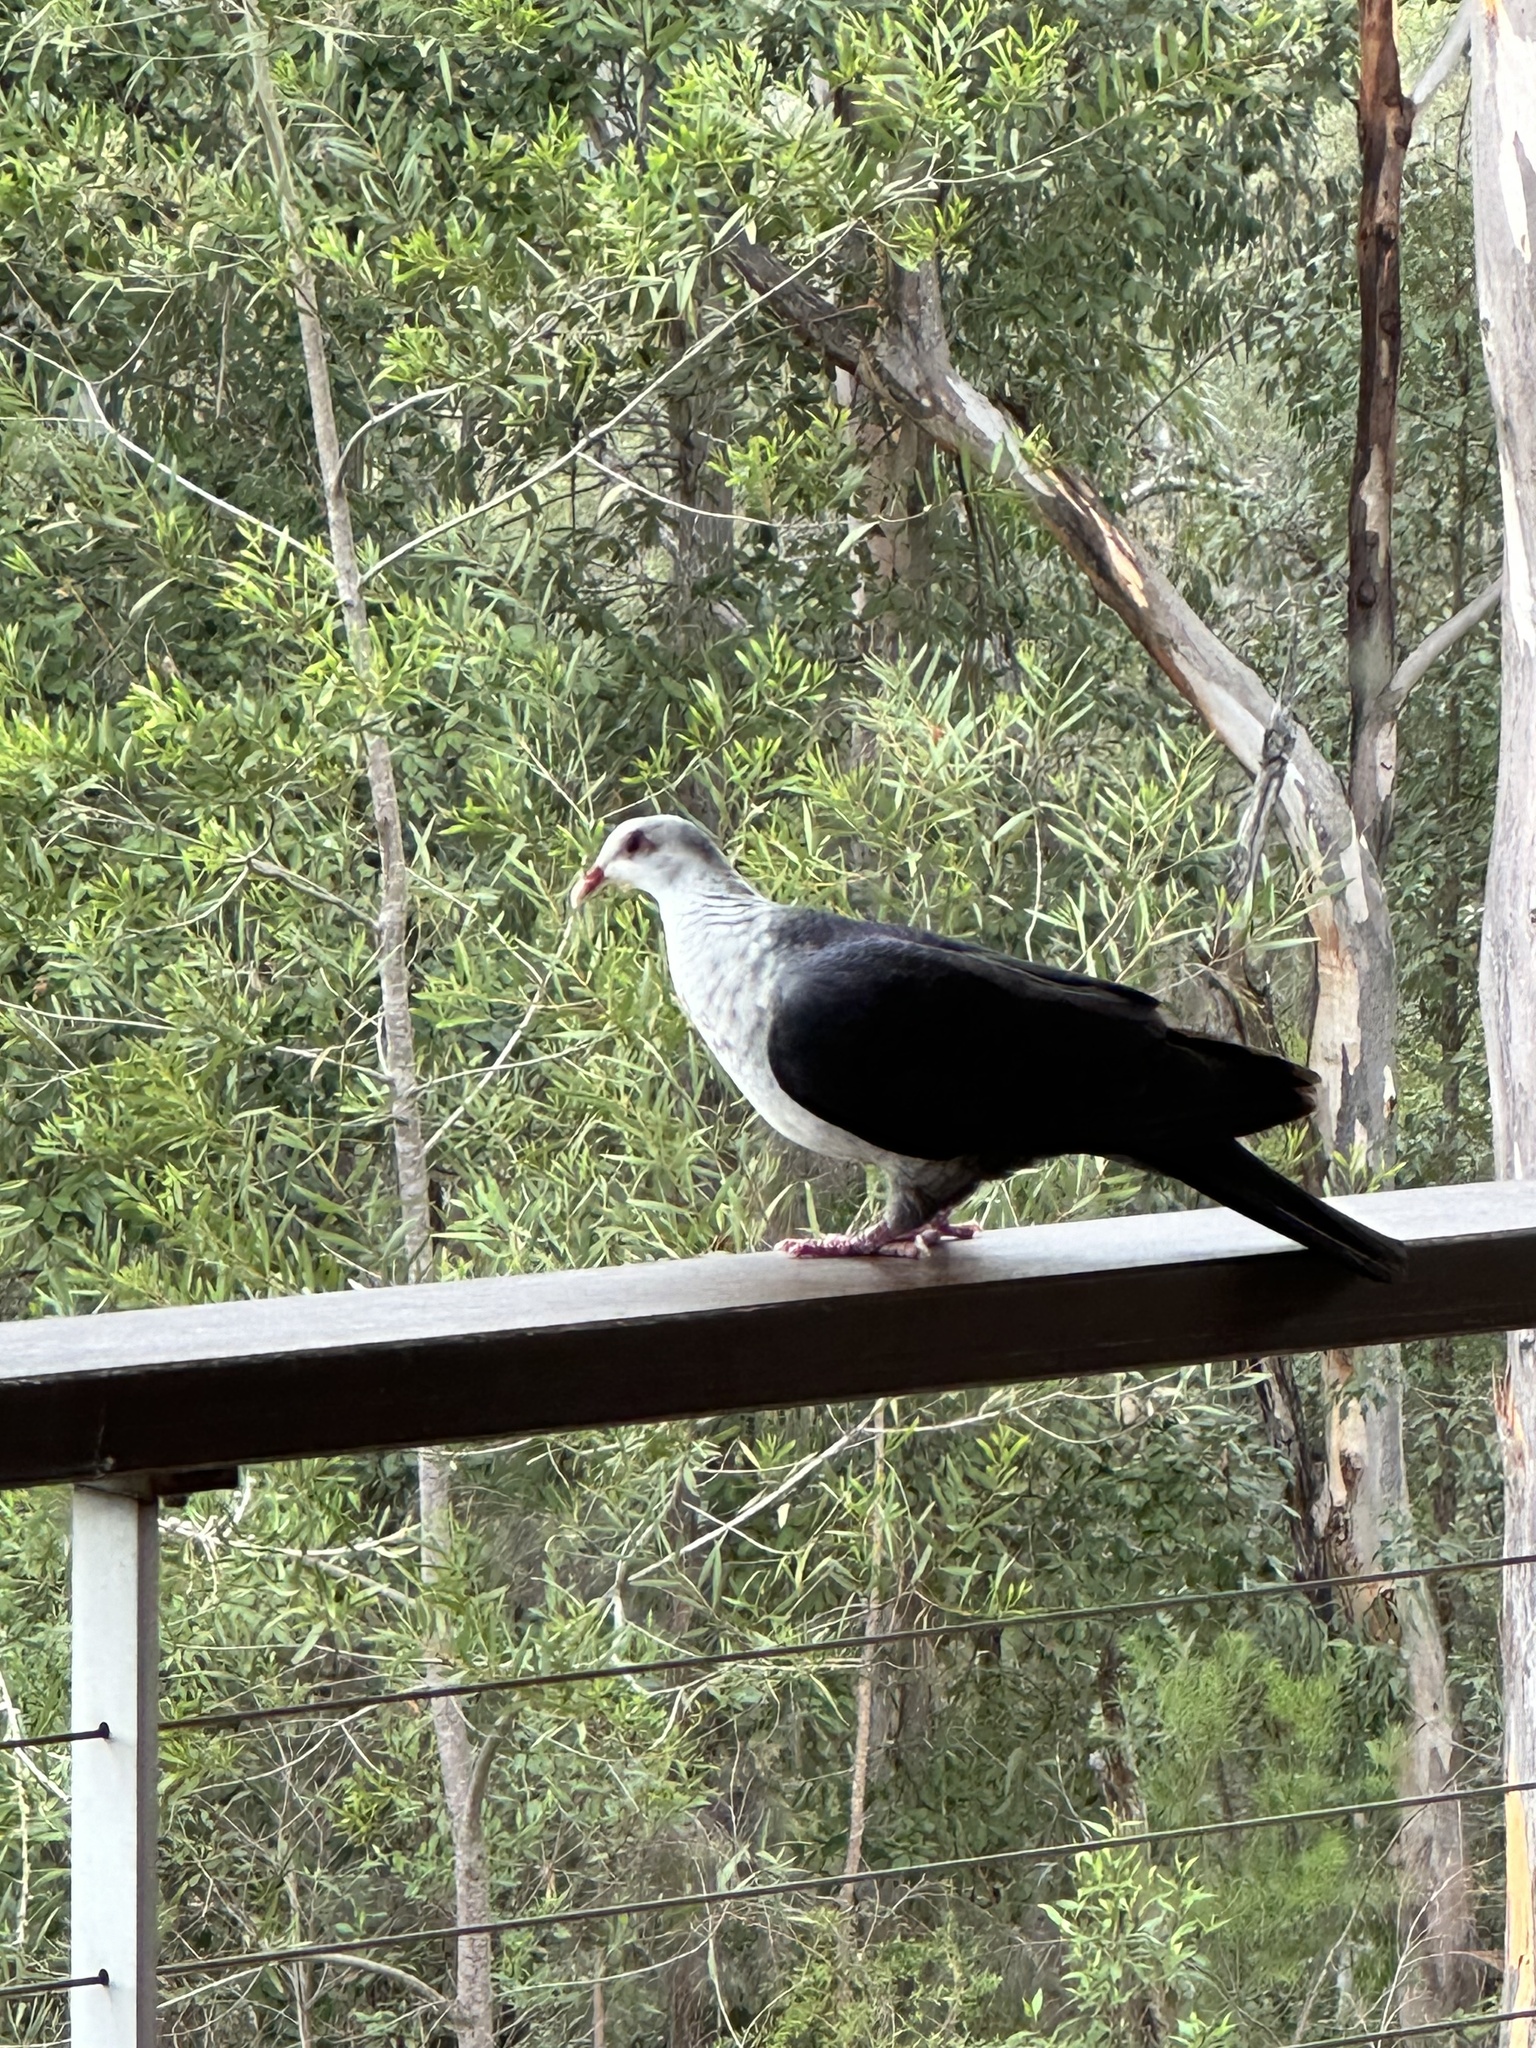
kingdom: Animalia
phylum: Chordata
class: Aves
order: Columbiformes
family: Columbidae
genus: Columba
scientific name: Columba leucomela
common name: White-headed pigeon
